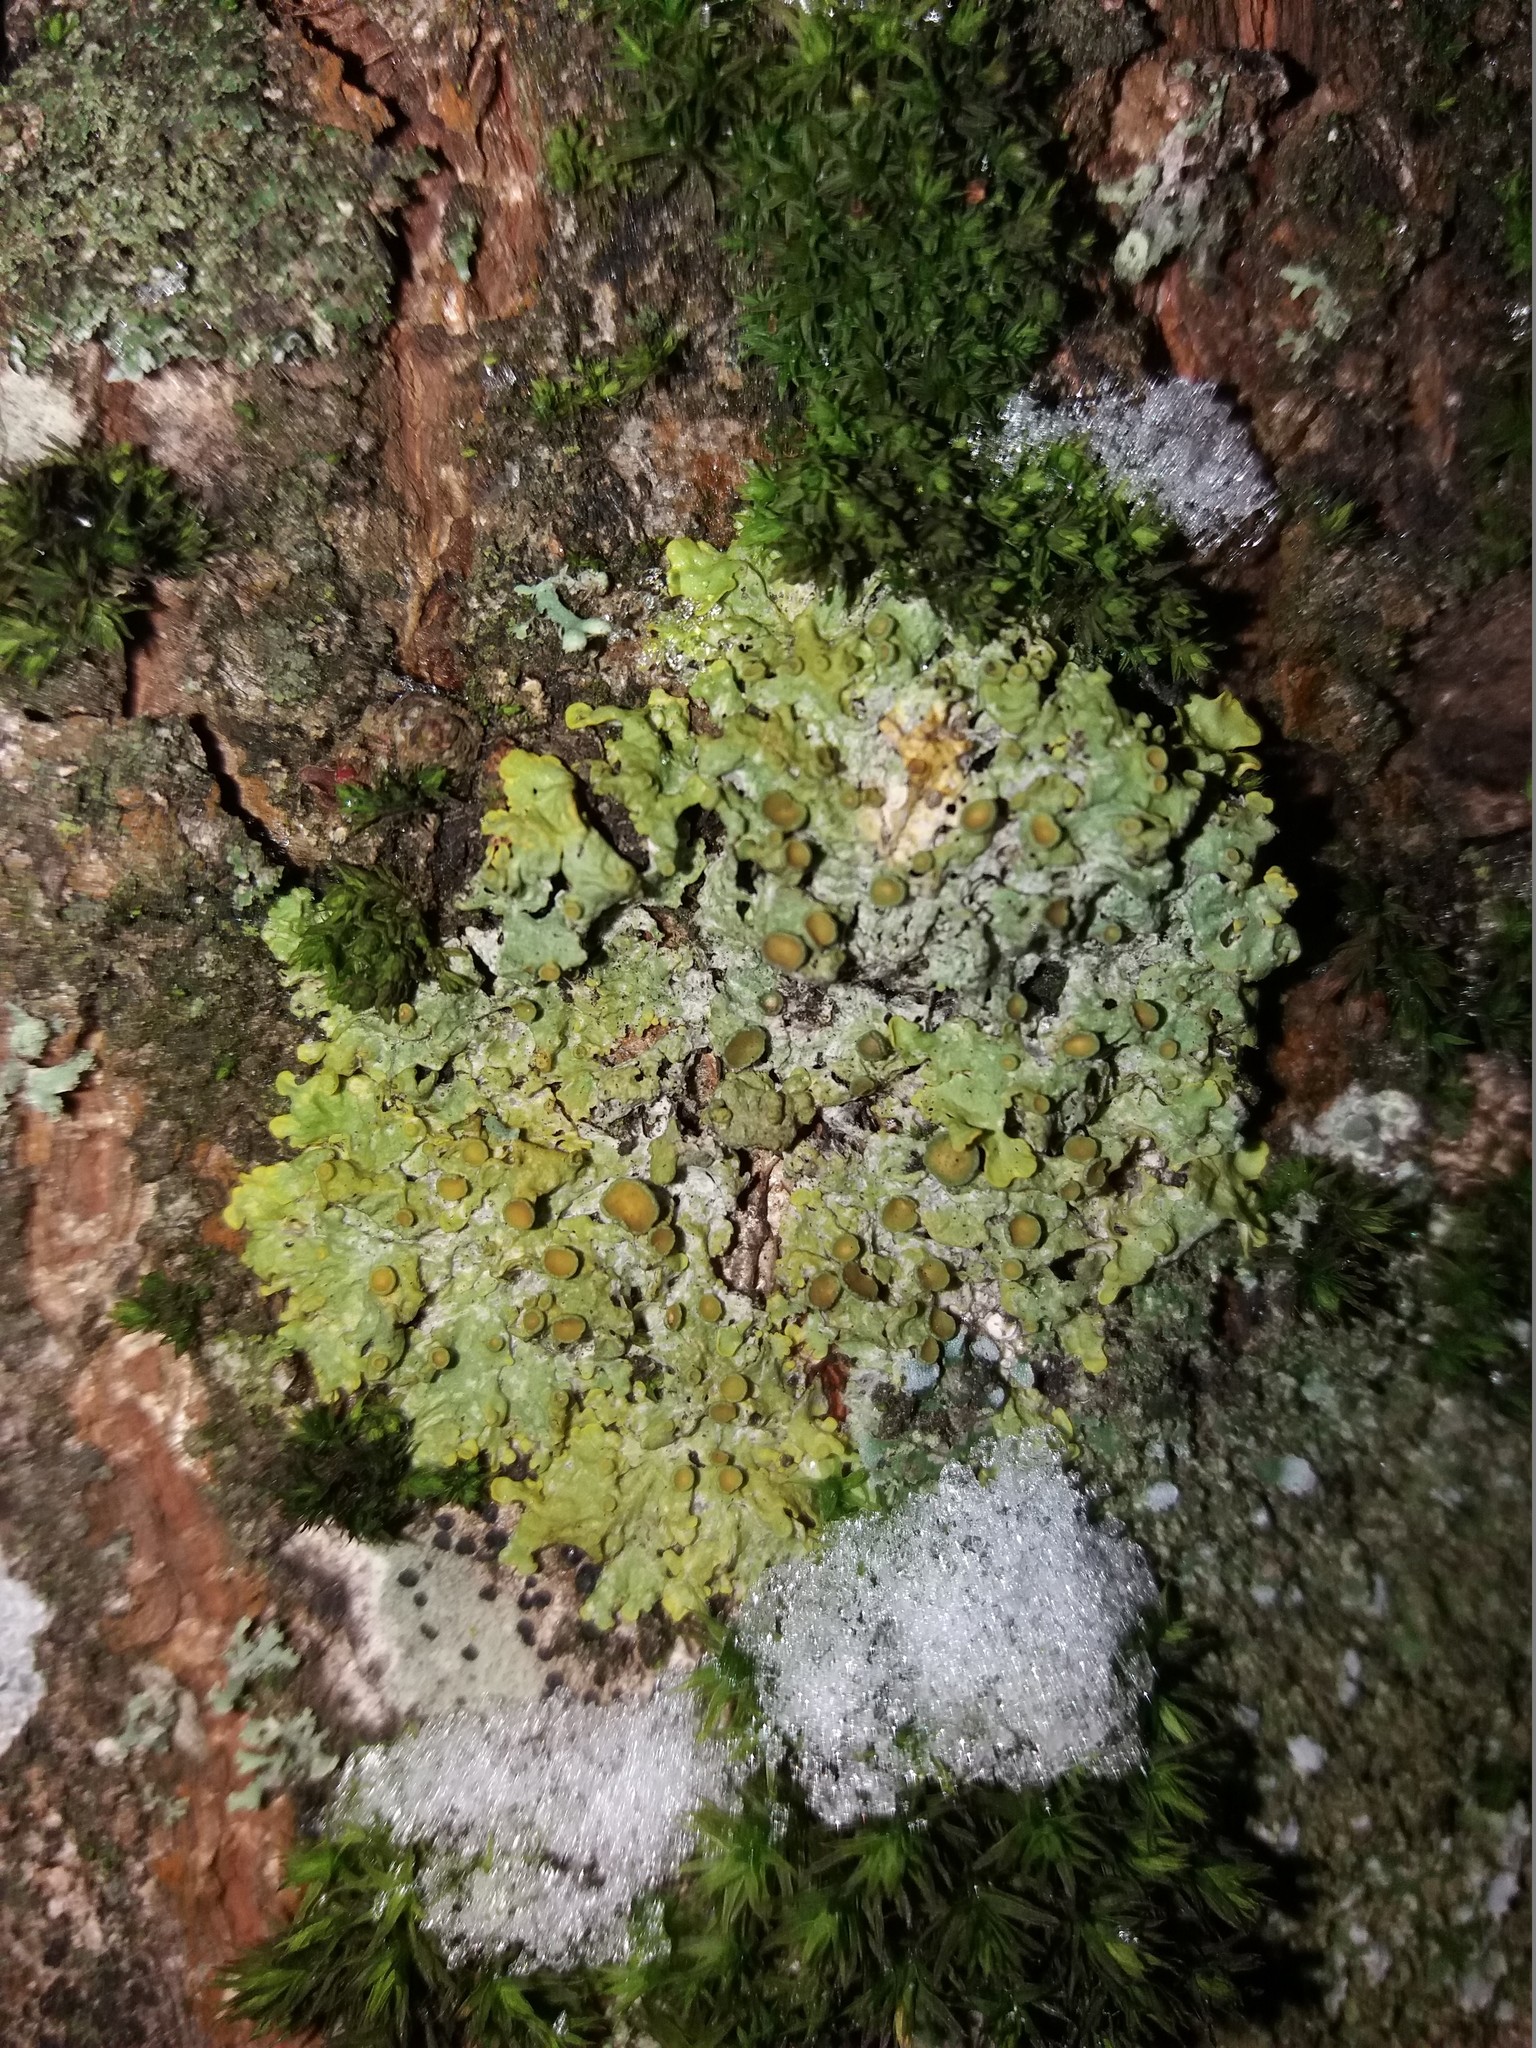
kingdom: Fungi
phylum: Ascomycota
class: Lecanoromycetes
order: Teloschistales
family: Teloschistaceae
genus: Xanthoria
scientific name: Xanthoria parietina
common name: Common orange lichen
